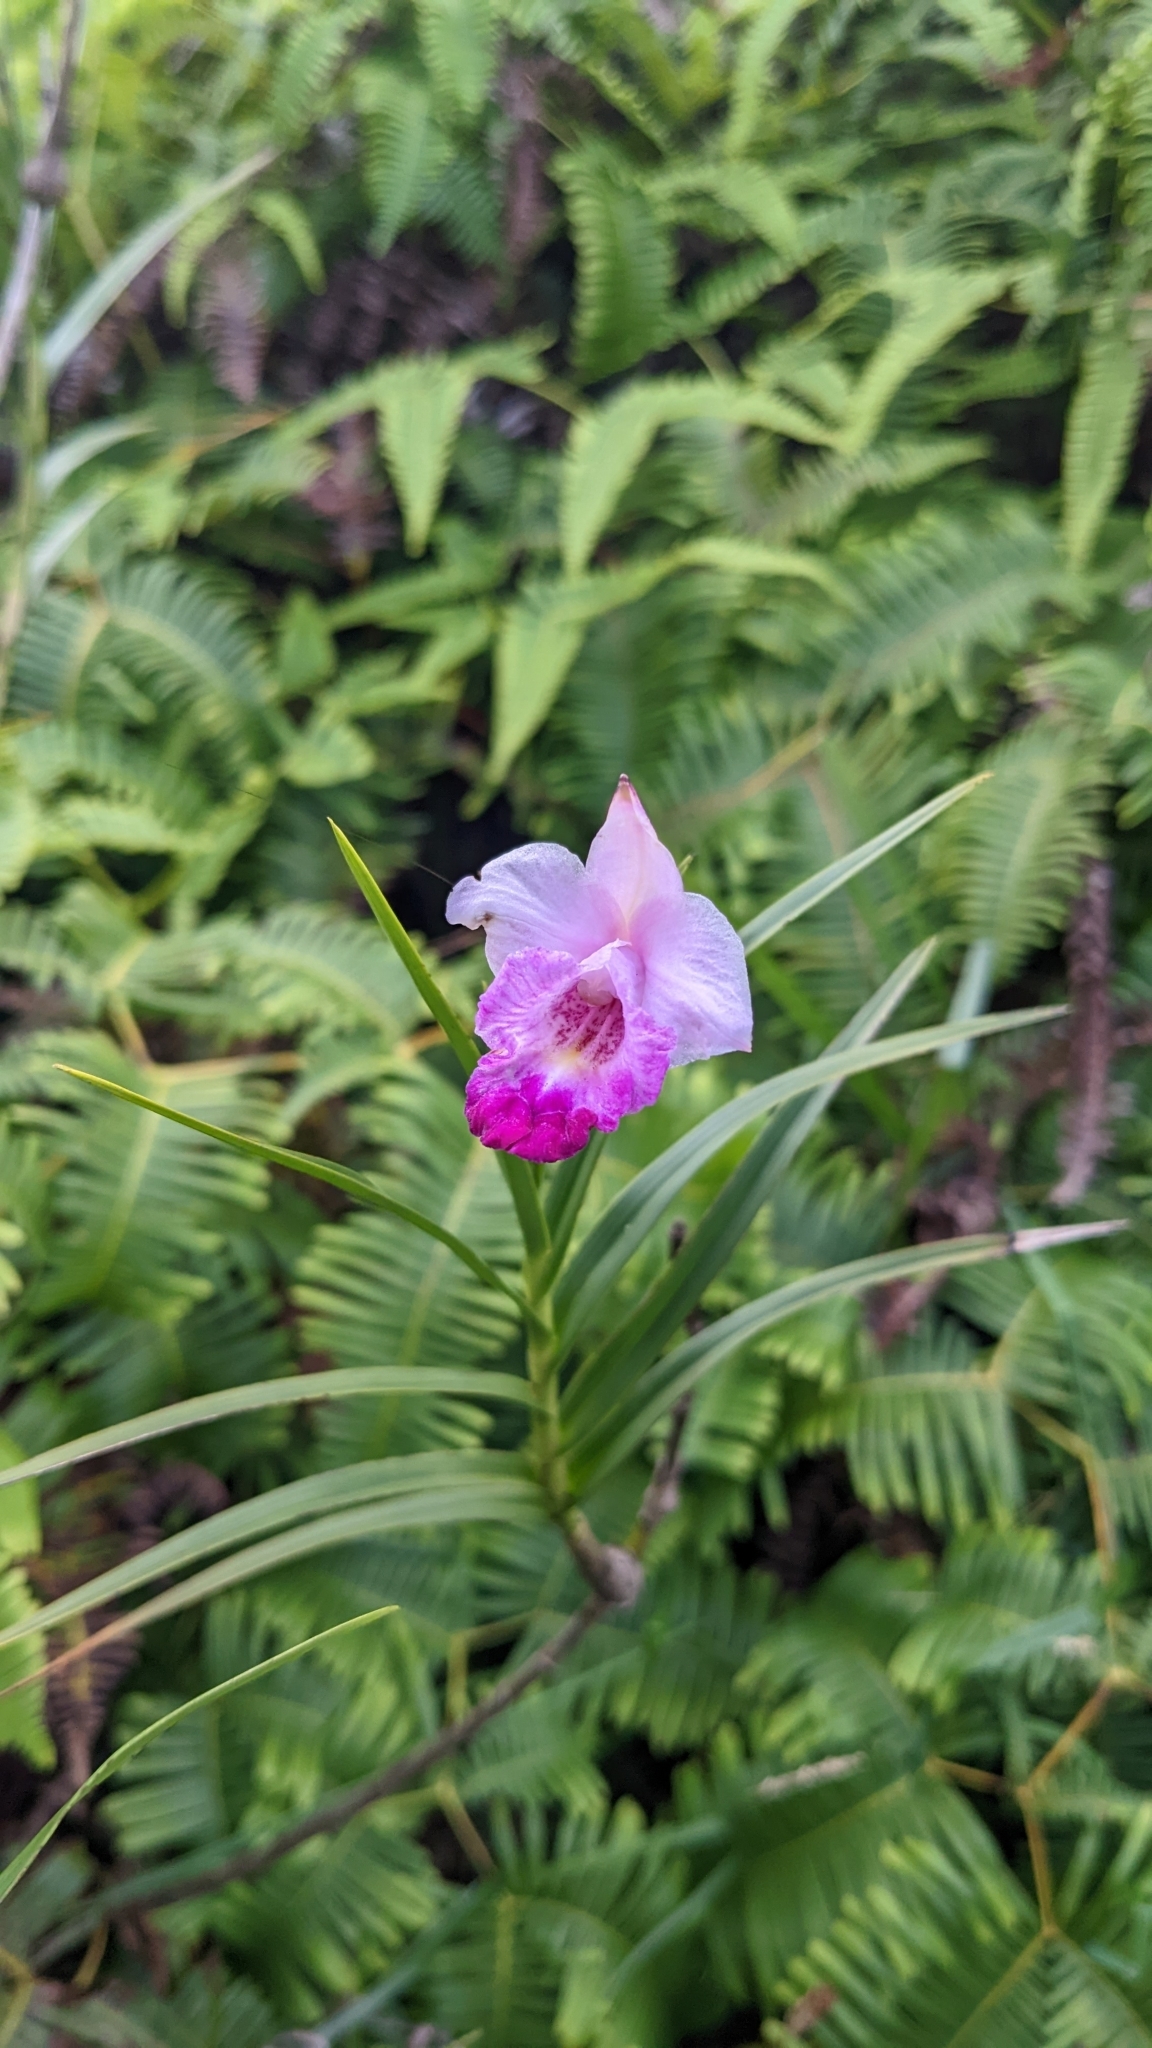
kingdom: Plantae
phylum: Tracheophyta
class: Liliopsida
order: Asparagales
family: Orchidaceae
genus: Arundina
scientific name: Arundina graminifolia
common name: Bamboo orchid
